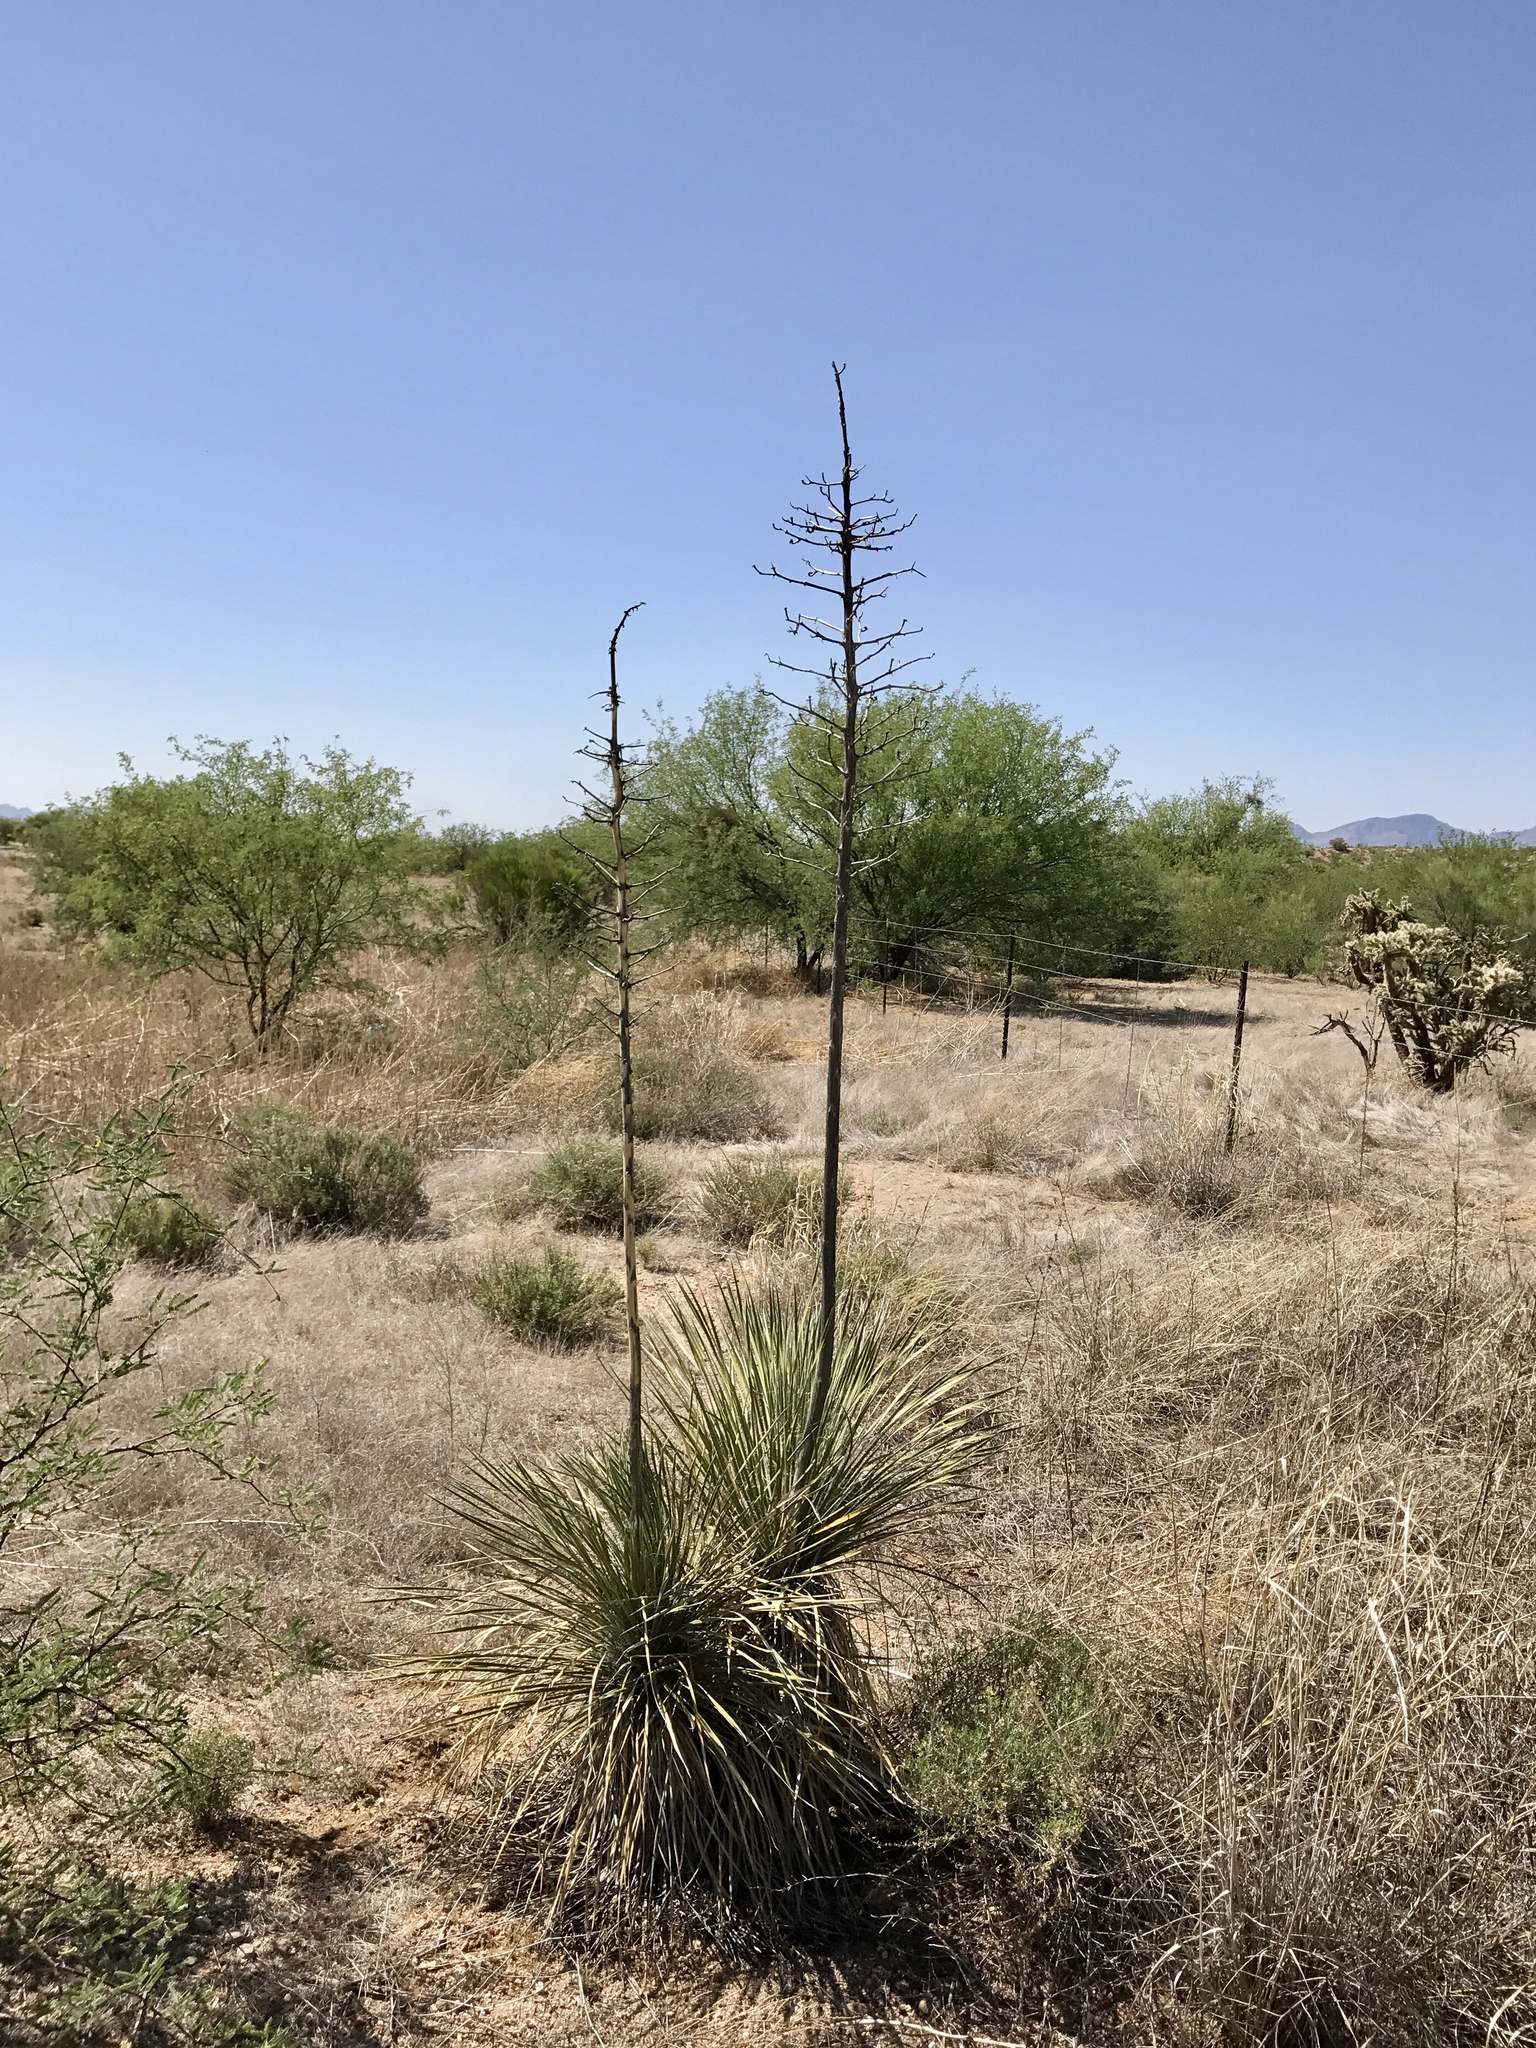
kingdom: Plantae
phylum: Tracheophyta
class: Liliopsida
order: Asparagales
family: Asparagaceae
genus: Yucca
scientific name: Yucca elata
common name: Palmella
